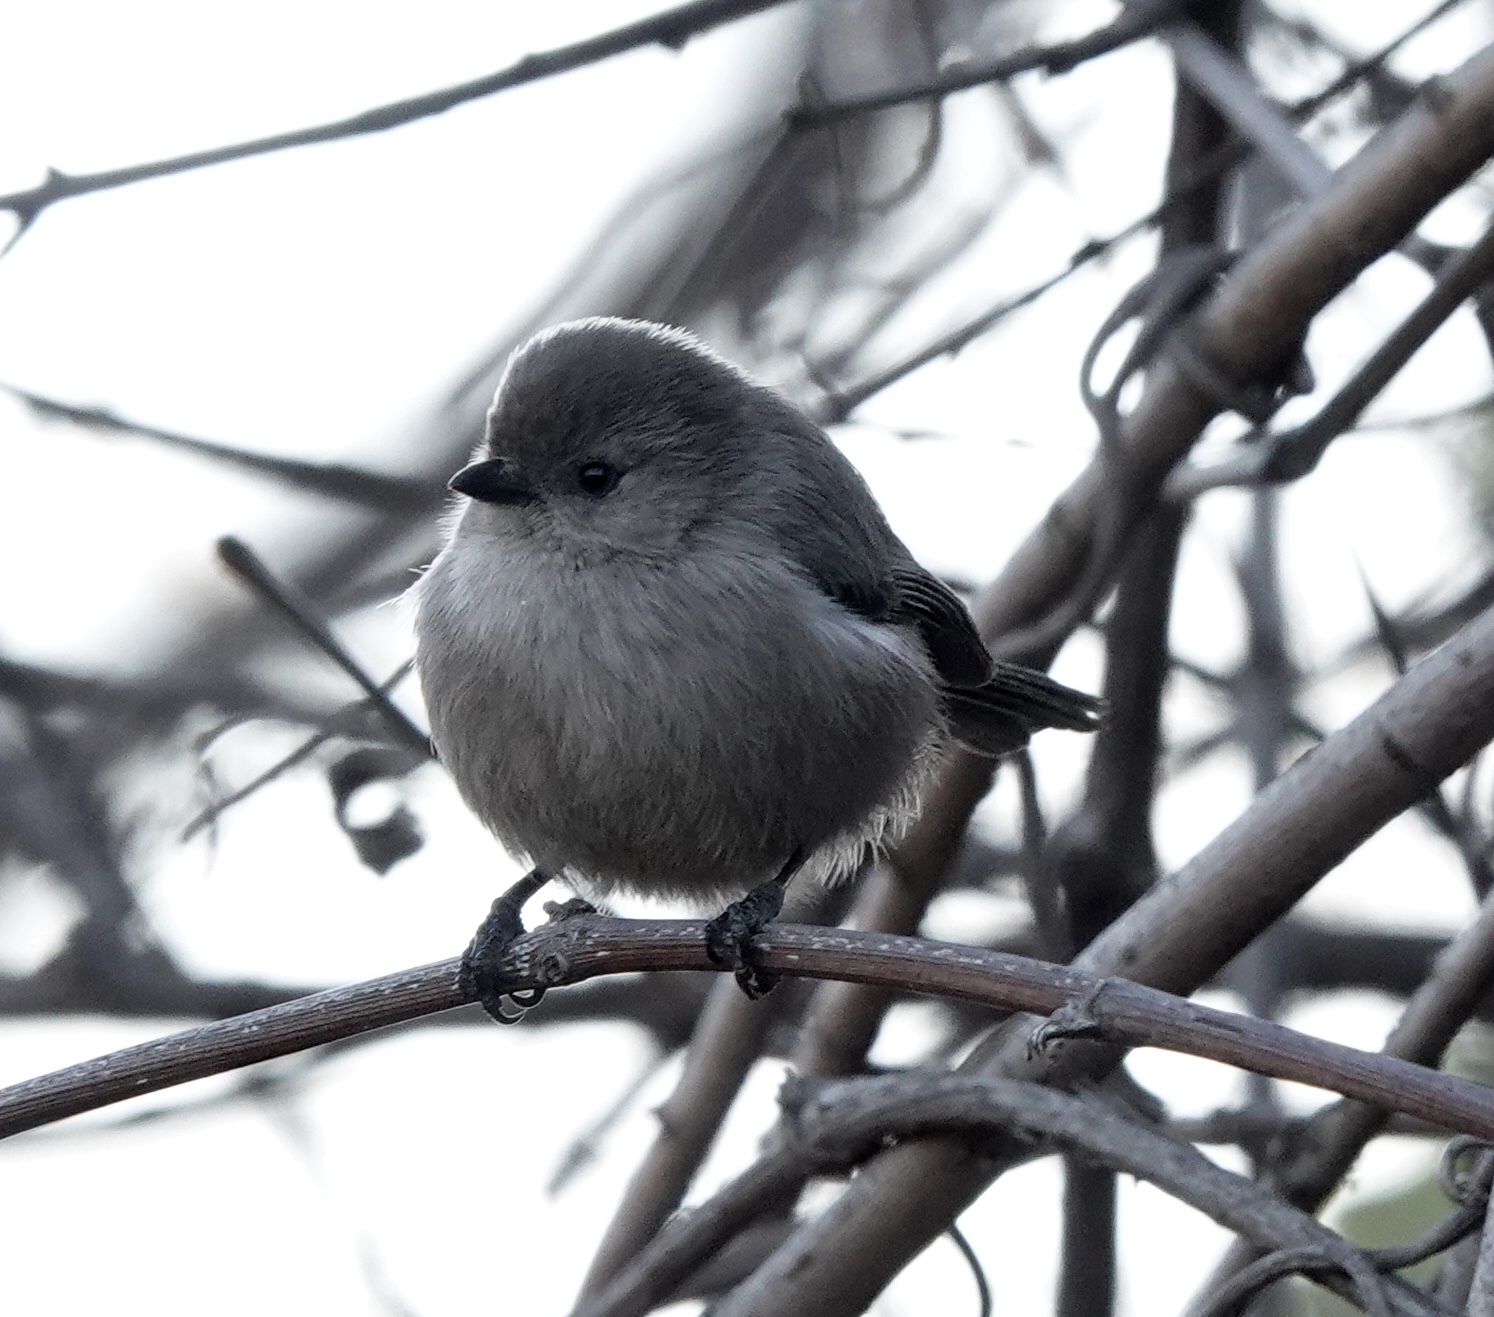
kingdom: Animalia
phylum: Chordata
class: Aves
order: Passeriformes
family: Aegithalidae
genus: Psaltriparus
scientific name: Psaltriparus minimus
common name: American bushtit
